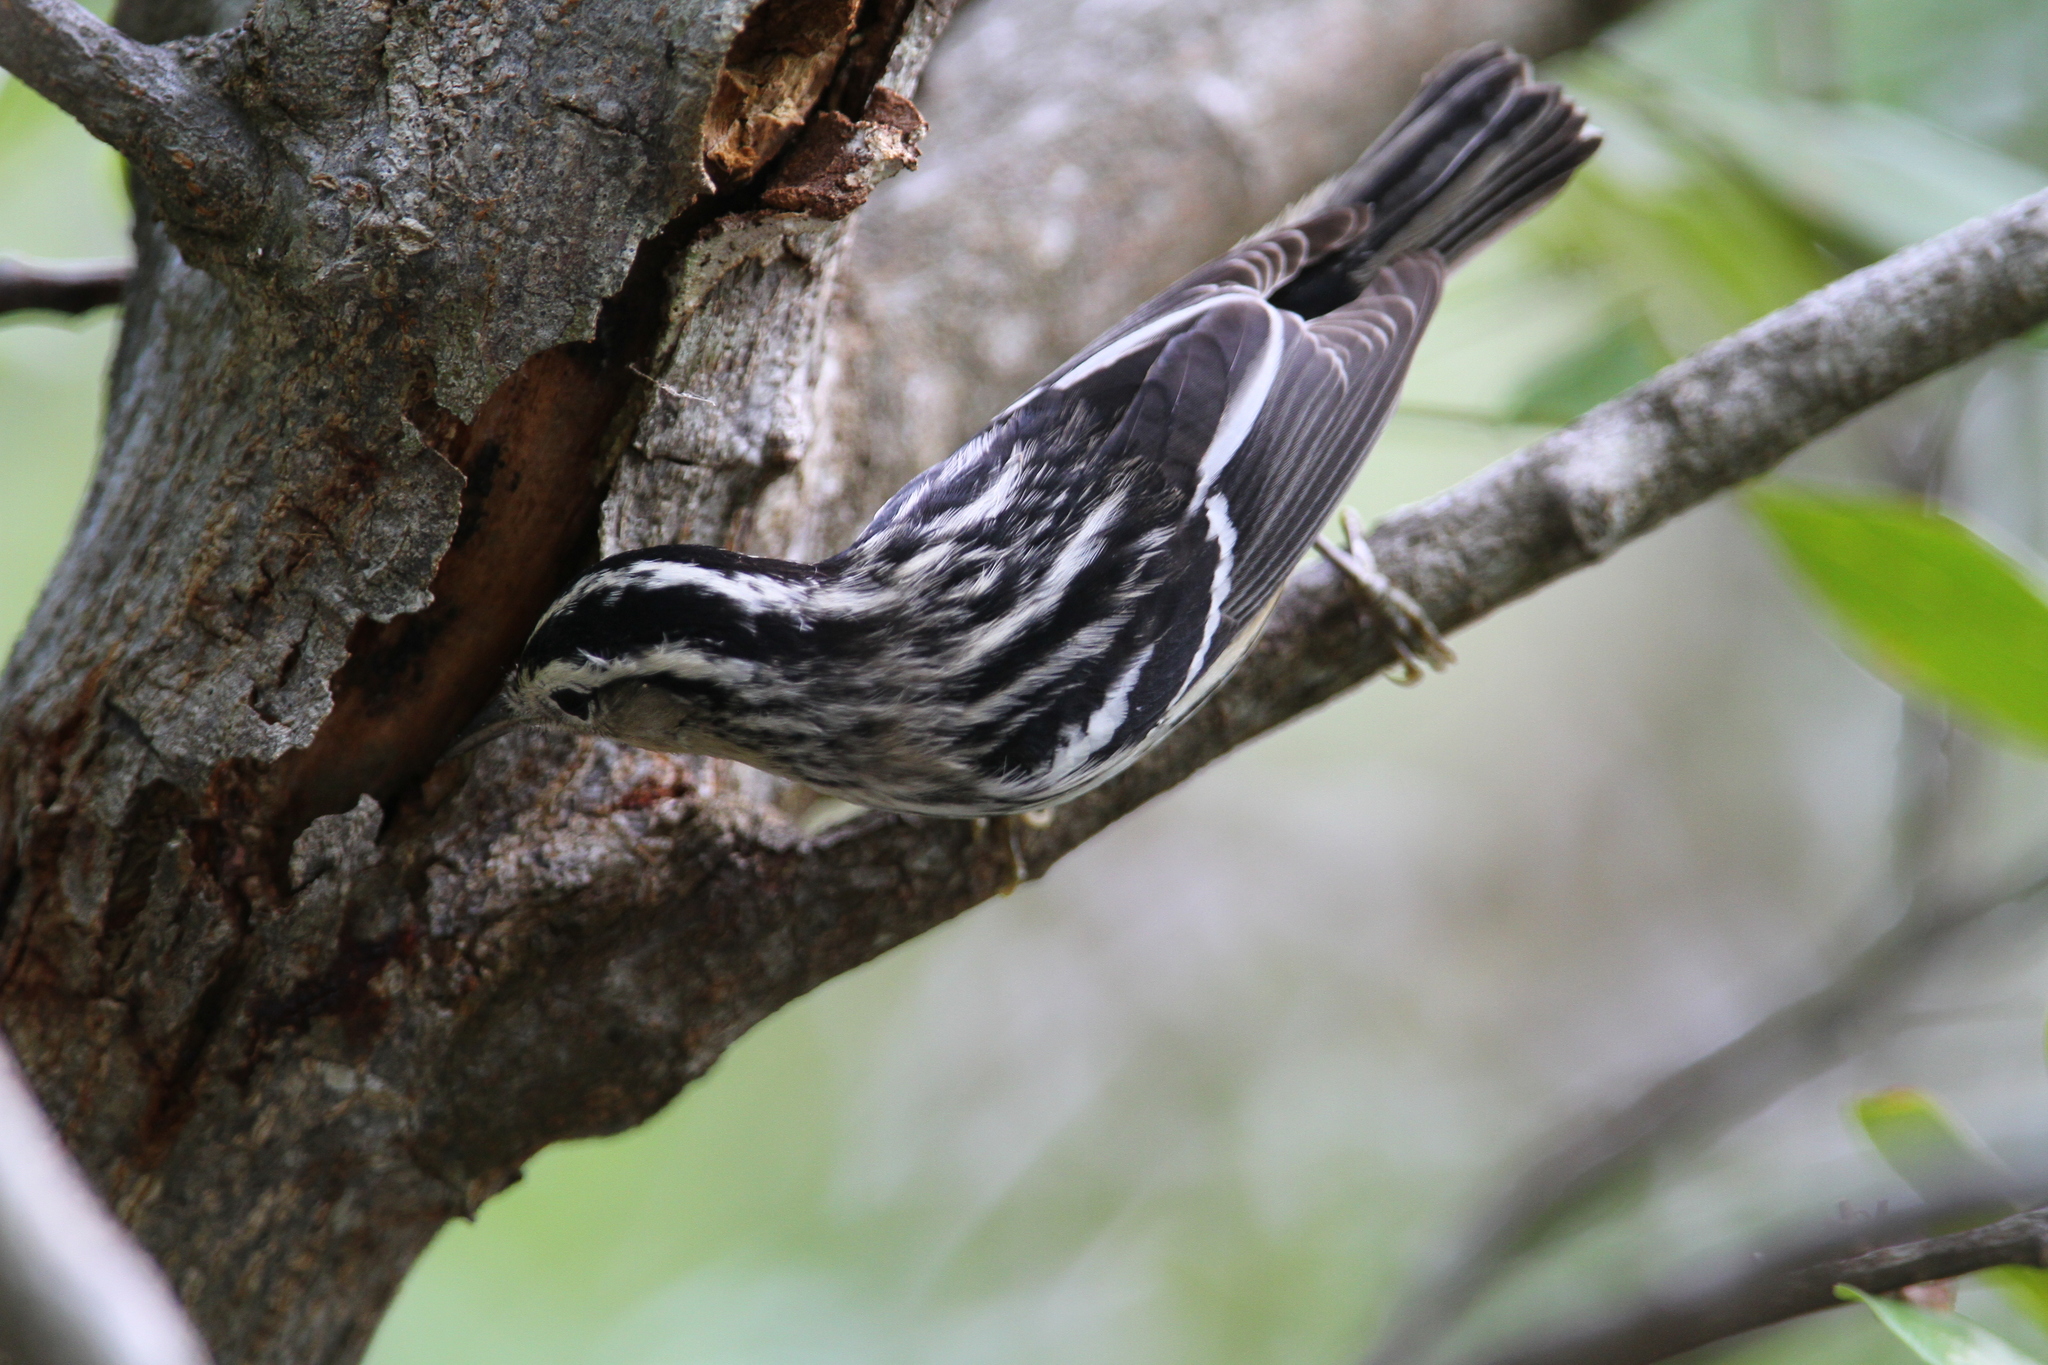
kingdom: Animalia
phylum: Chordata
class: Aves
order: Passeriformes
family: Parulidae
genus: Mniotilta
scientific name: Mniotilta varia
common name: Black-and-white warbler
